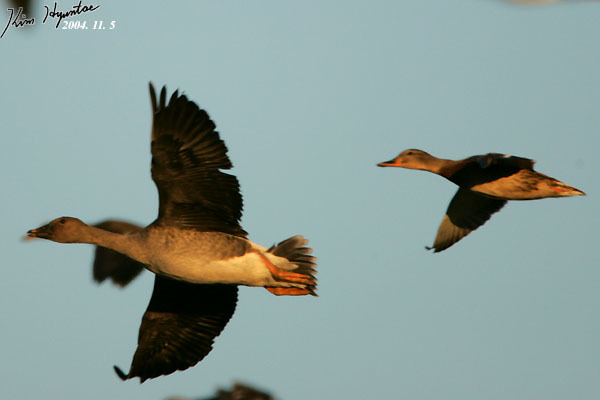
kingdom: Animalia
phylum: Chordata
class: Aves
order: Anseriformes
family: Anatidae
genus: Anser
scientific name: Anser fabalis
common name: Bean goose
